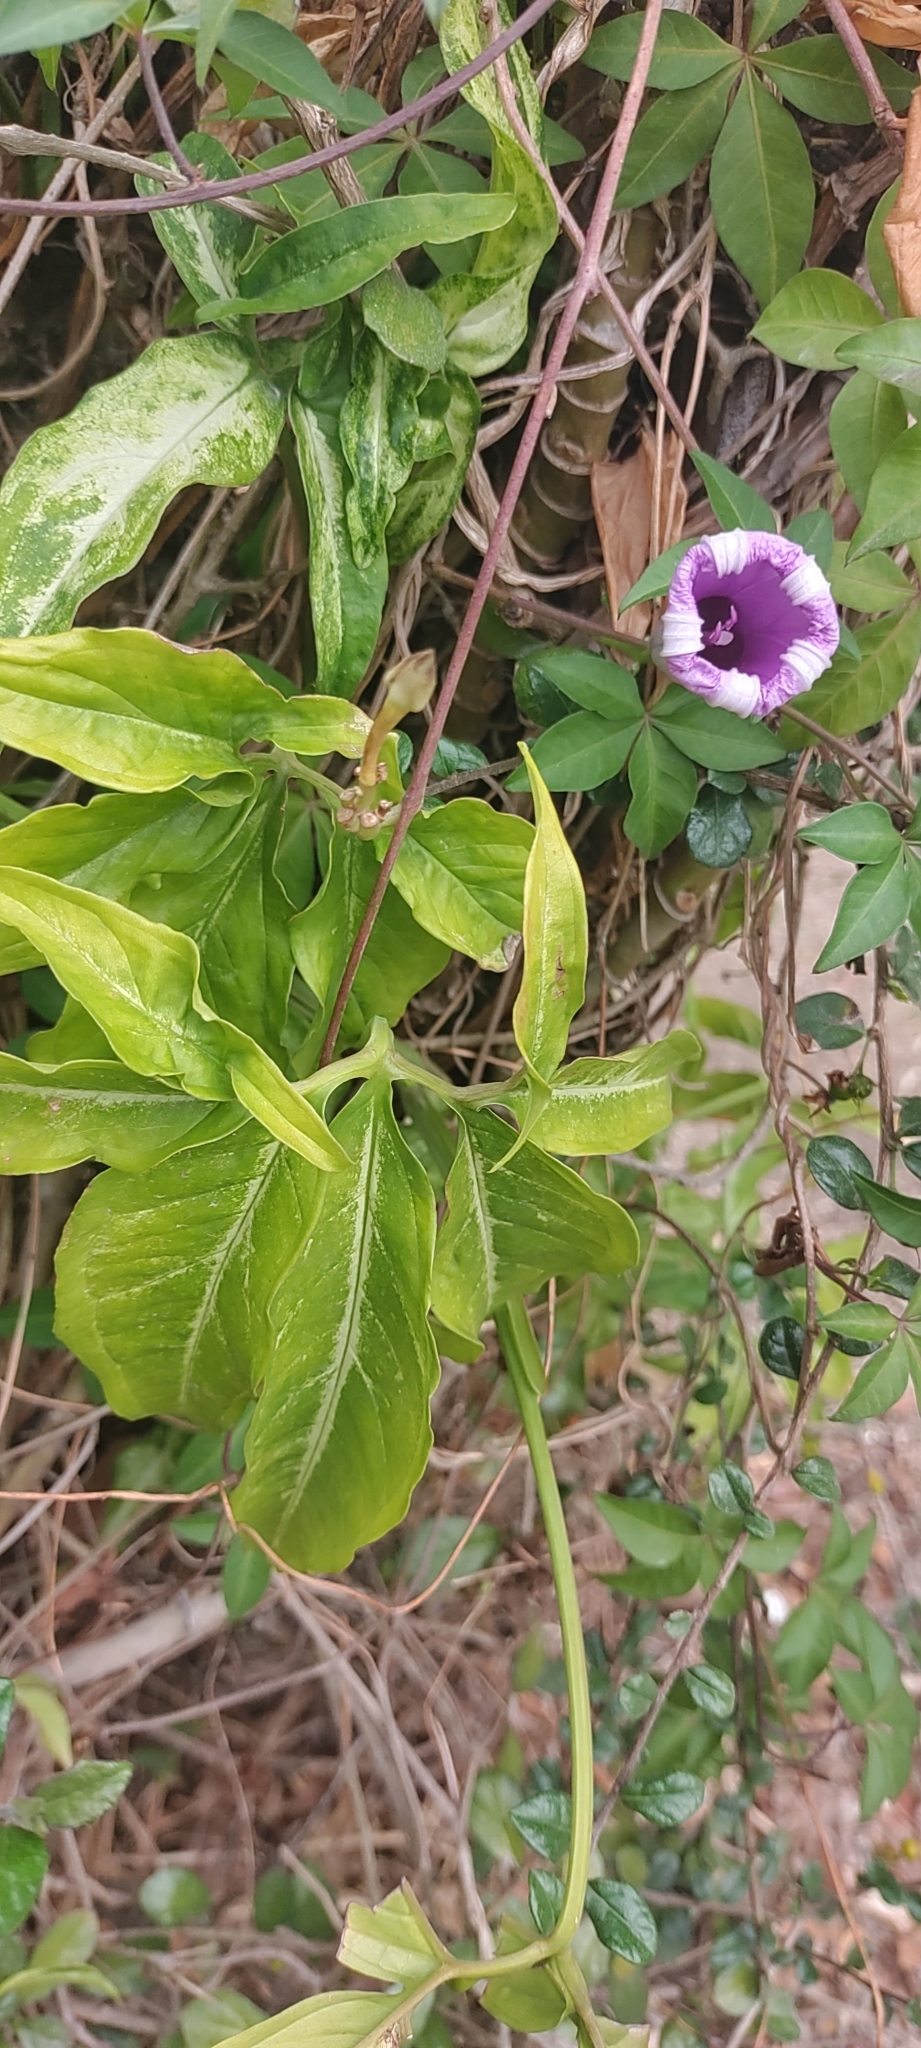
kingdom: Plantae
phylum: Tracheophyta
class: Liliopsida
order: Alismatales
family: Araceae
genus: Syngonium
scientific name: Syngonium angustatum
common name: Fivefingers
